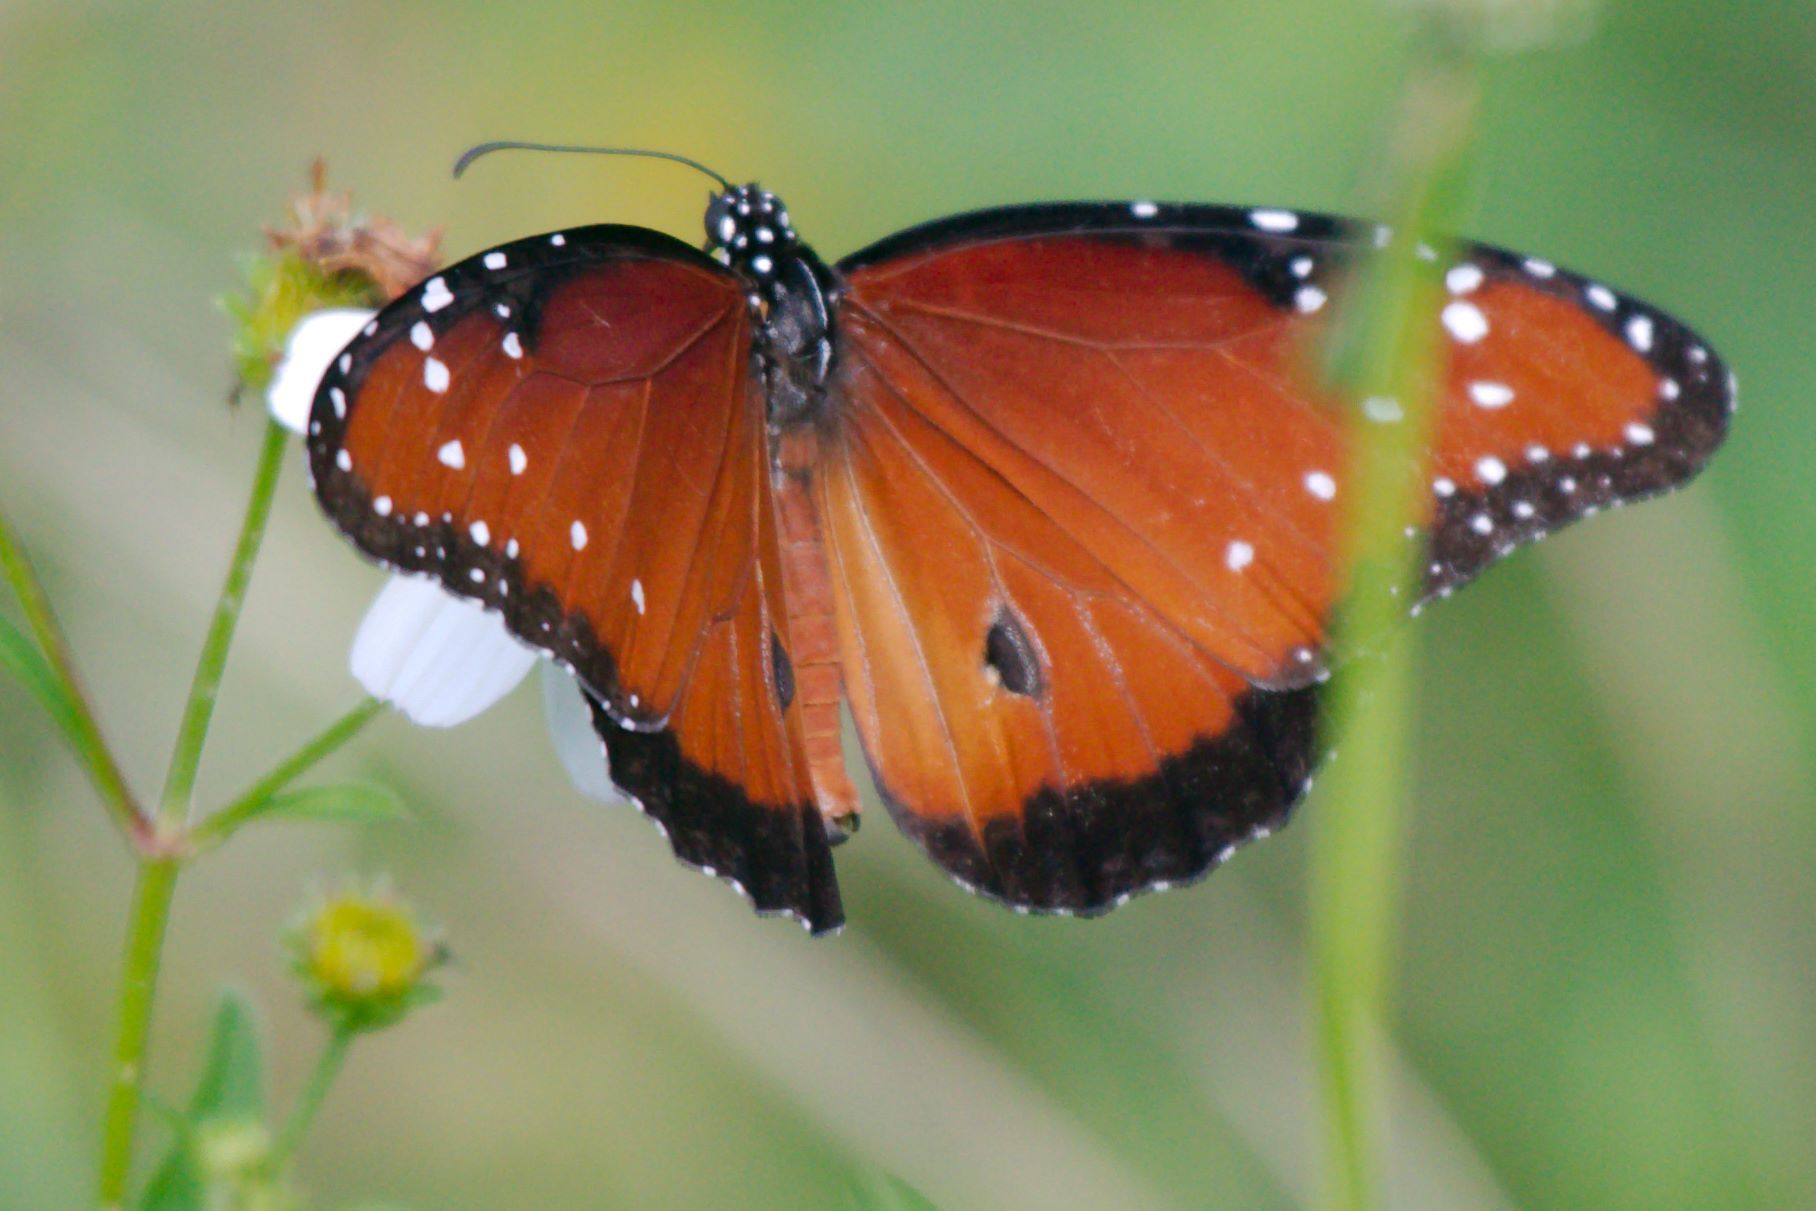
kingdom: Animalia
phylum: Arthropoda
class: Insecta
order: Lepidoptera
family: Nymphalidae
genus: Danaus
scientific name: Danaus gilippus
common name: Queen
